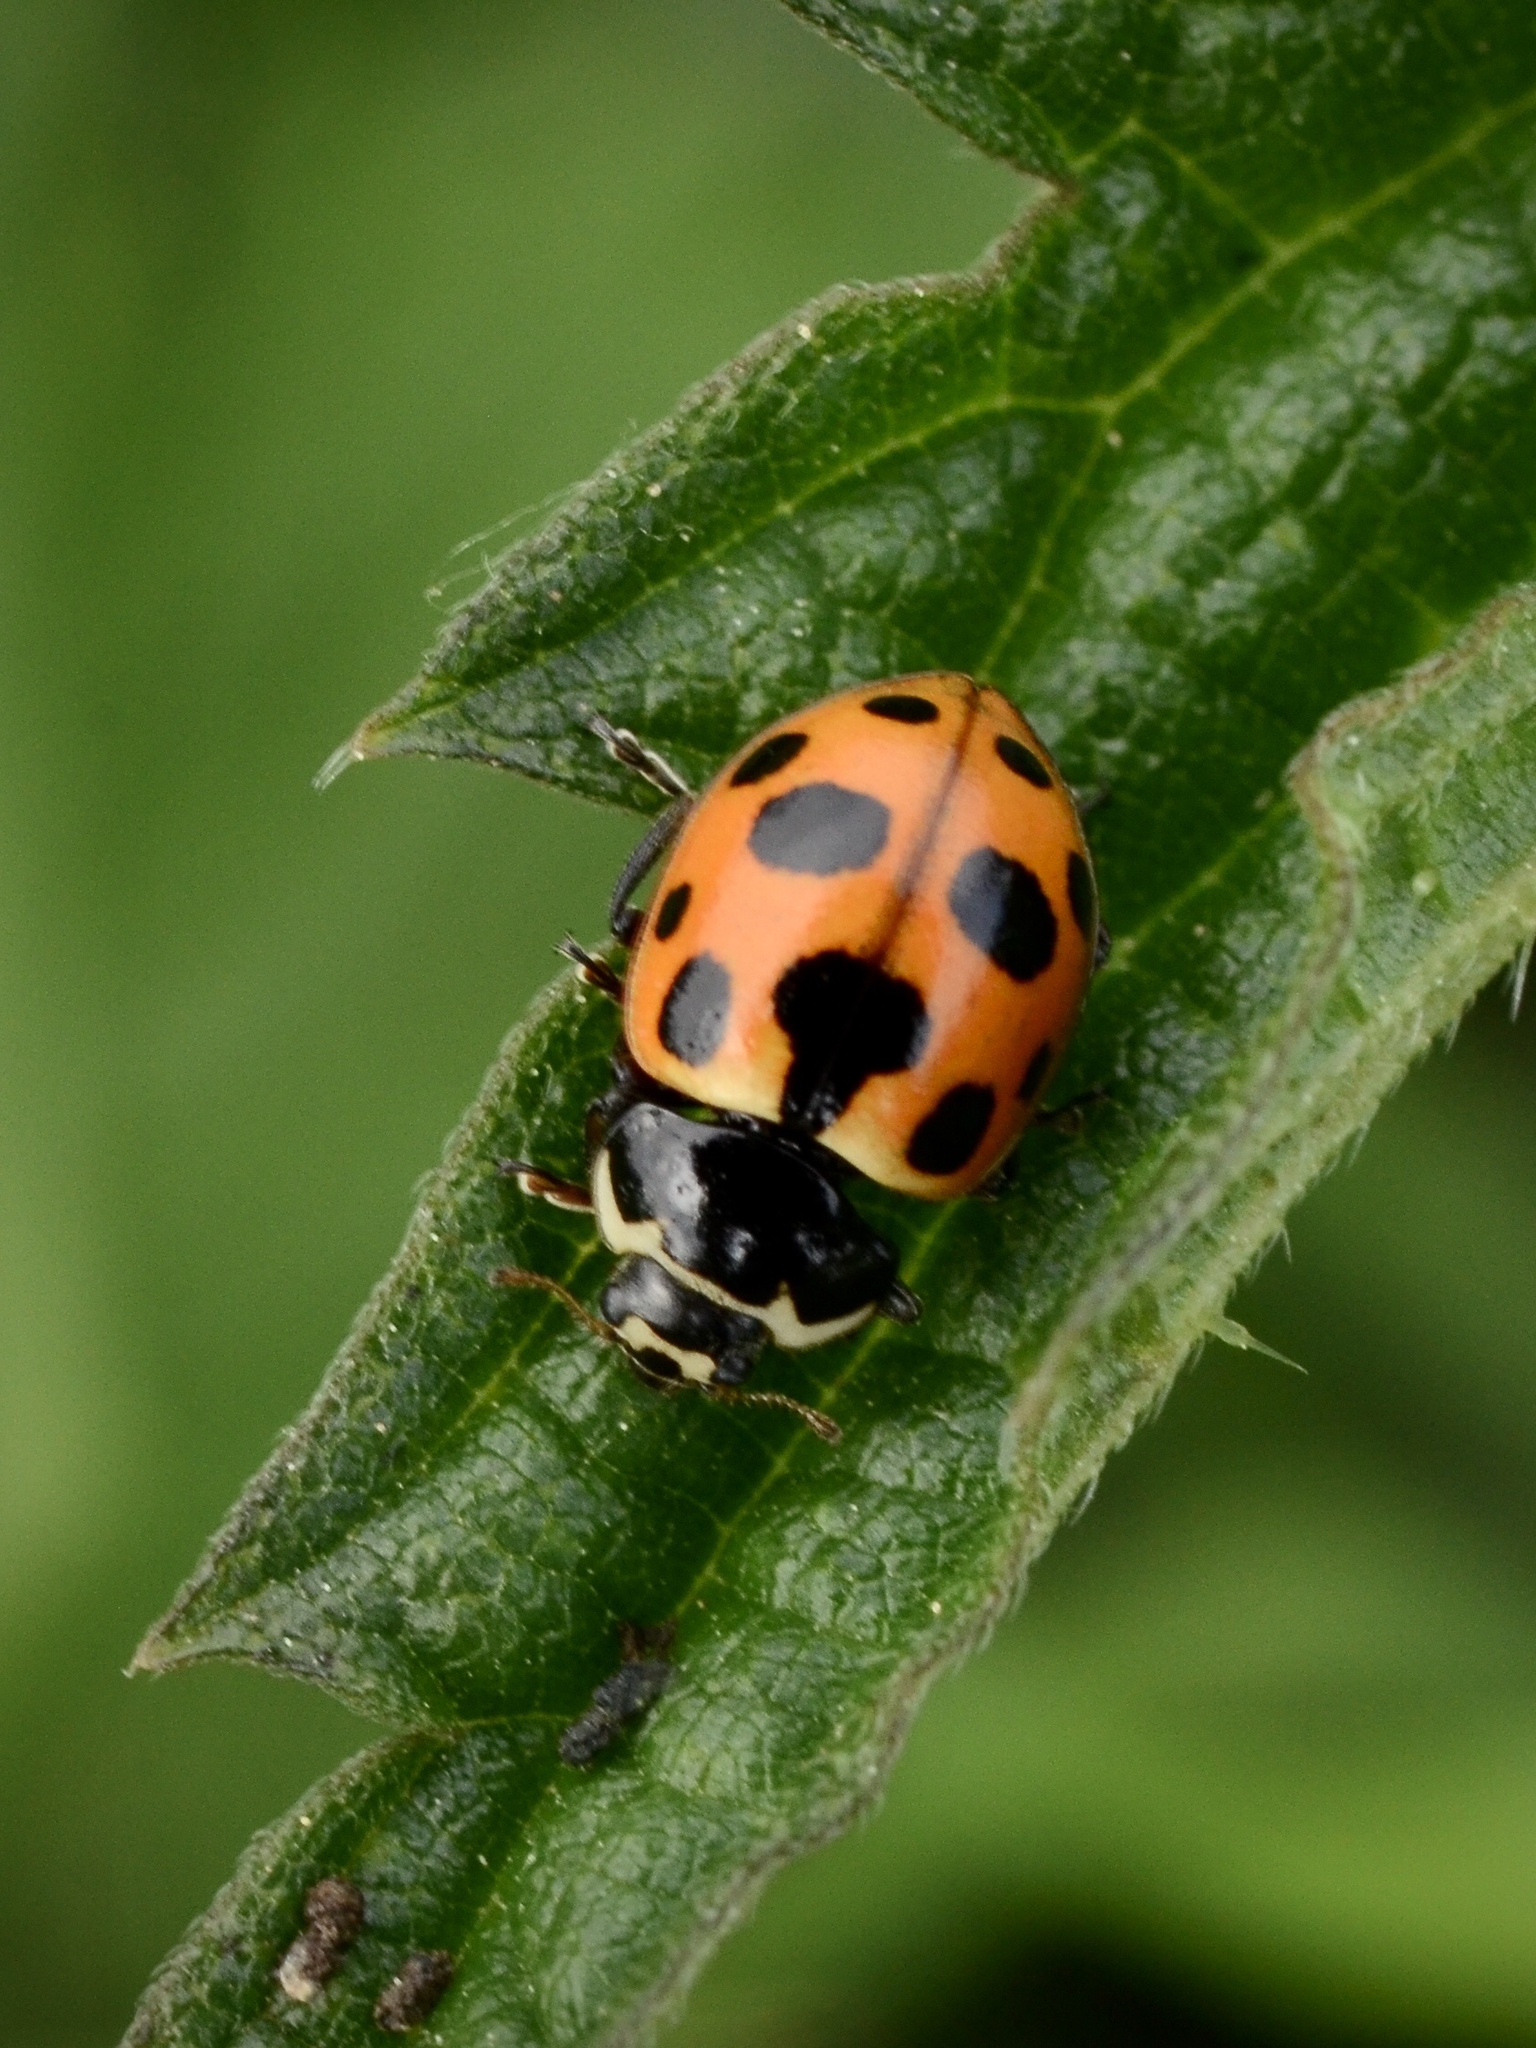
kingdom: Animalia
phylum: Arthropoda
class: Insecta
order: Coleoptera
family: Coccinellidae
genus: Ceratomegilla
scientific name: Ceratomegilla notata
